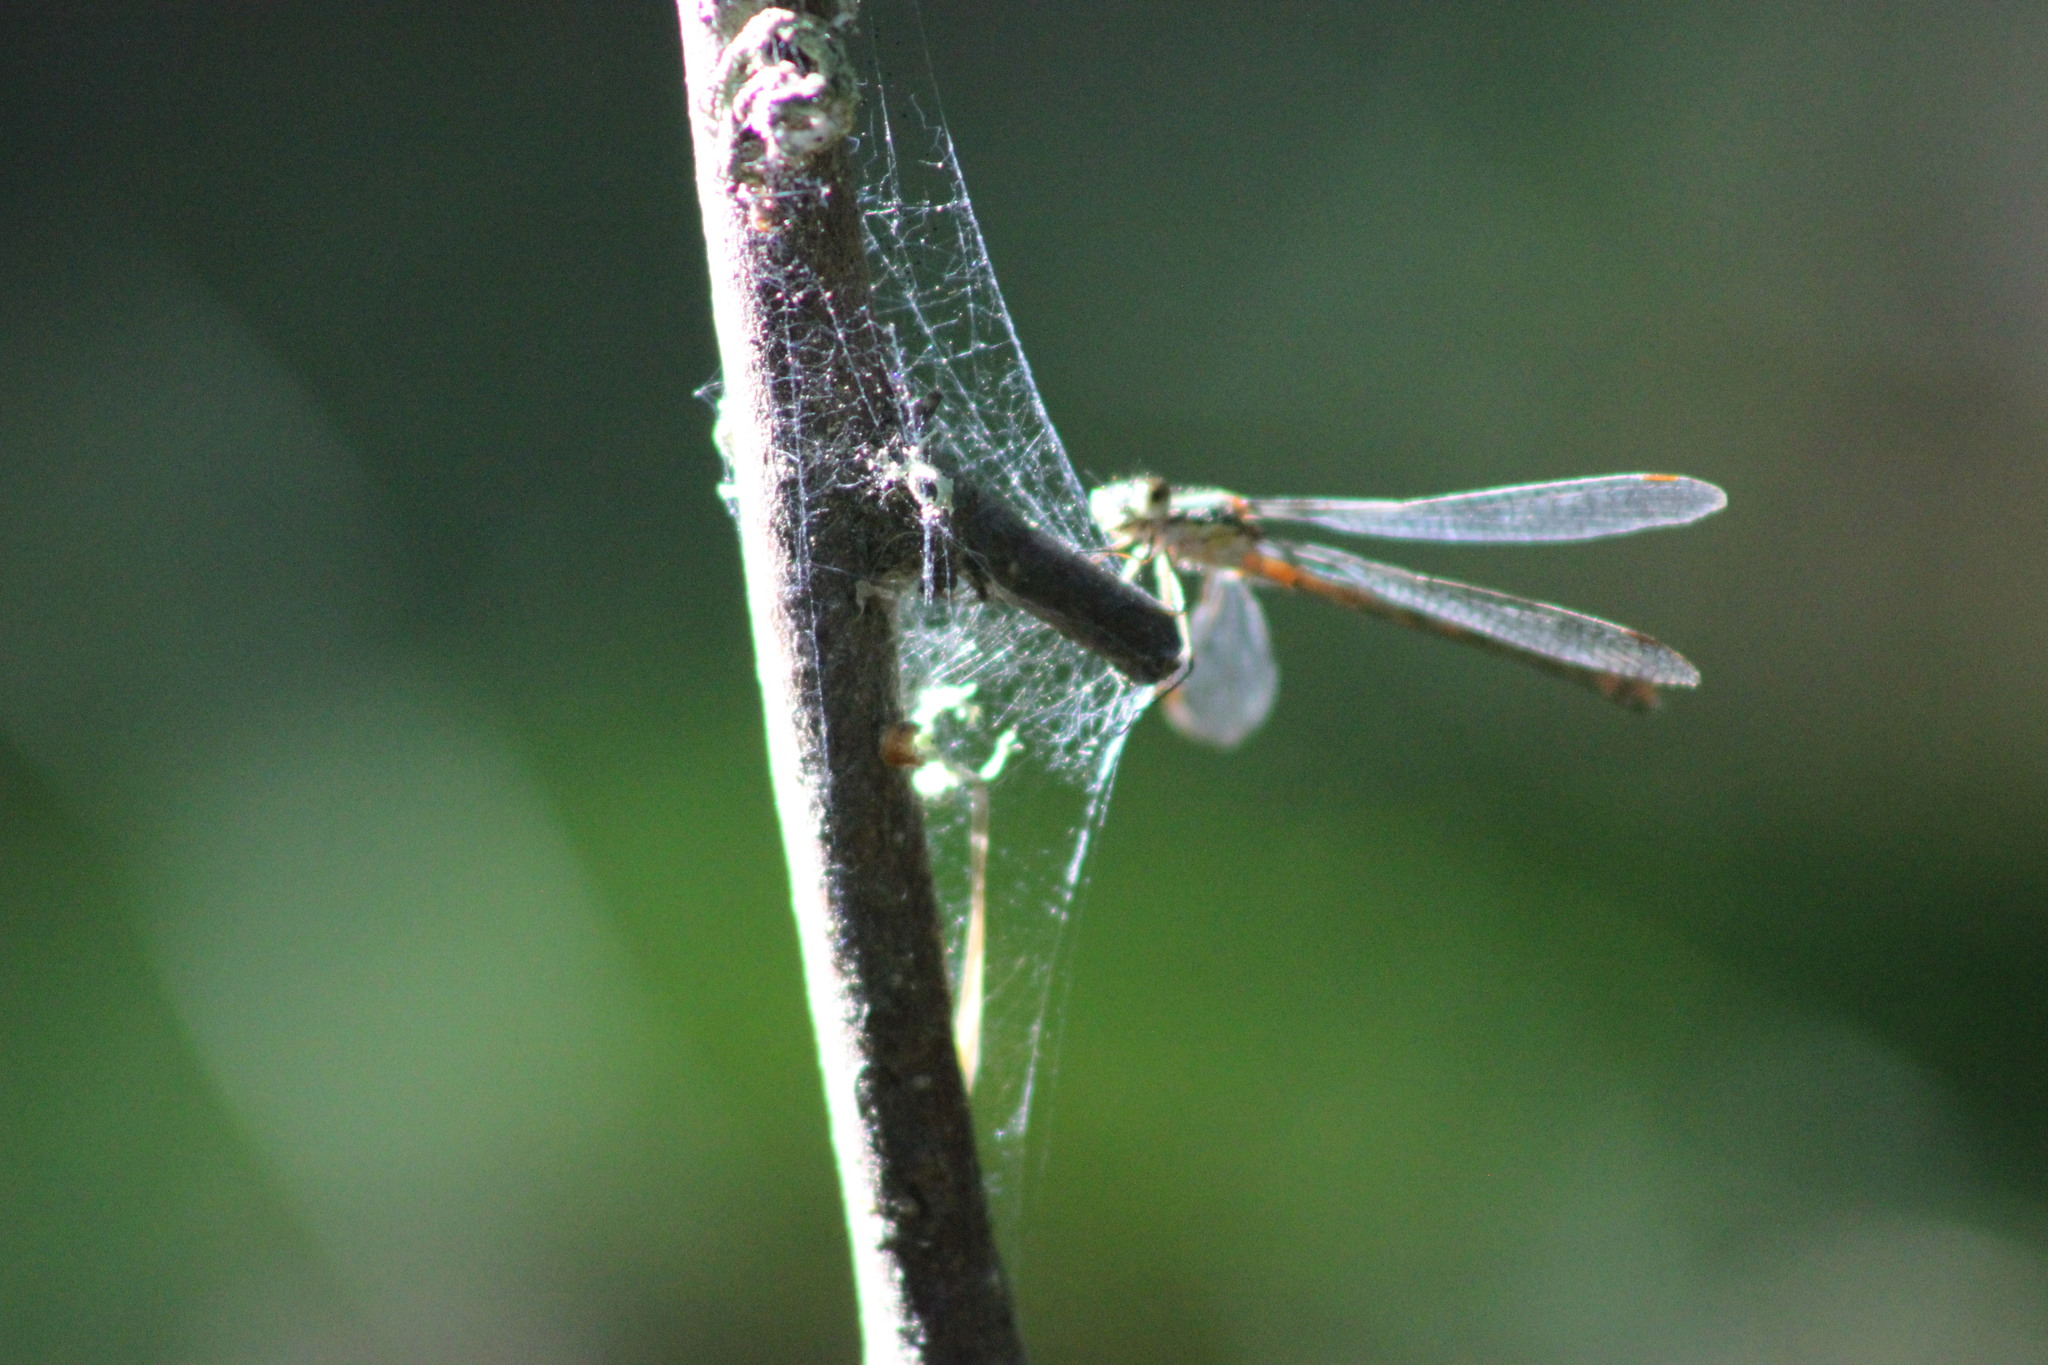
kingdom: Animalia
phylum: Arthropoda
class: Insecta
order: Odonata
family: Lestidae
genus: Lestes
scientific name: Lestes sponsa
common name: Common spreadwing
